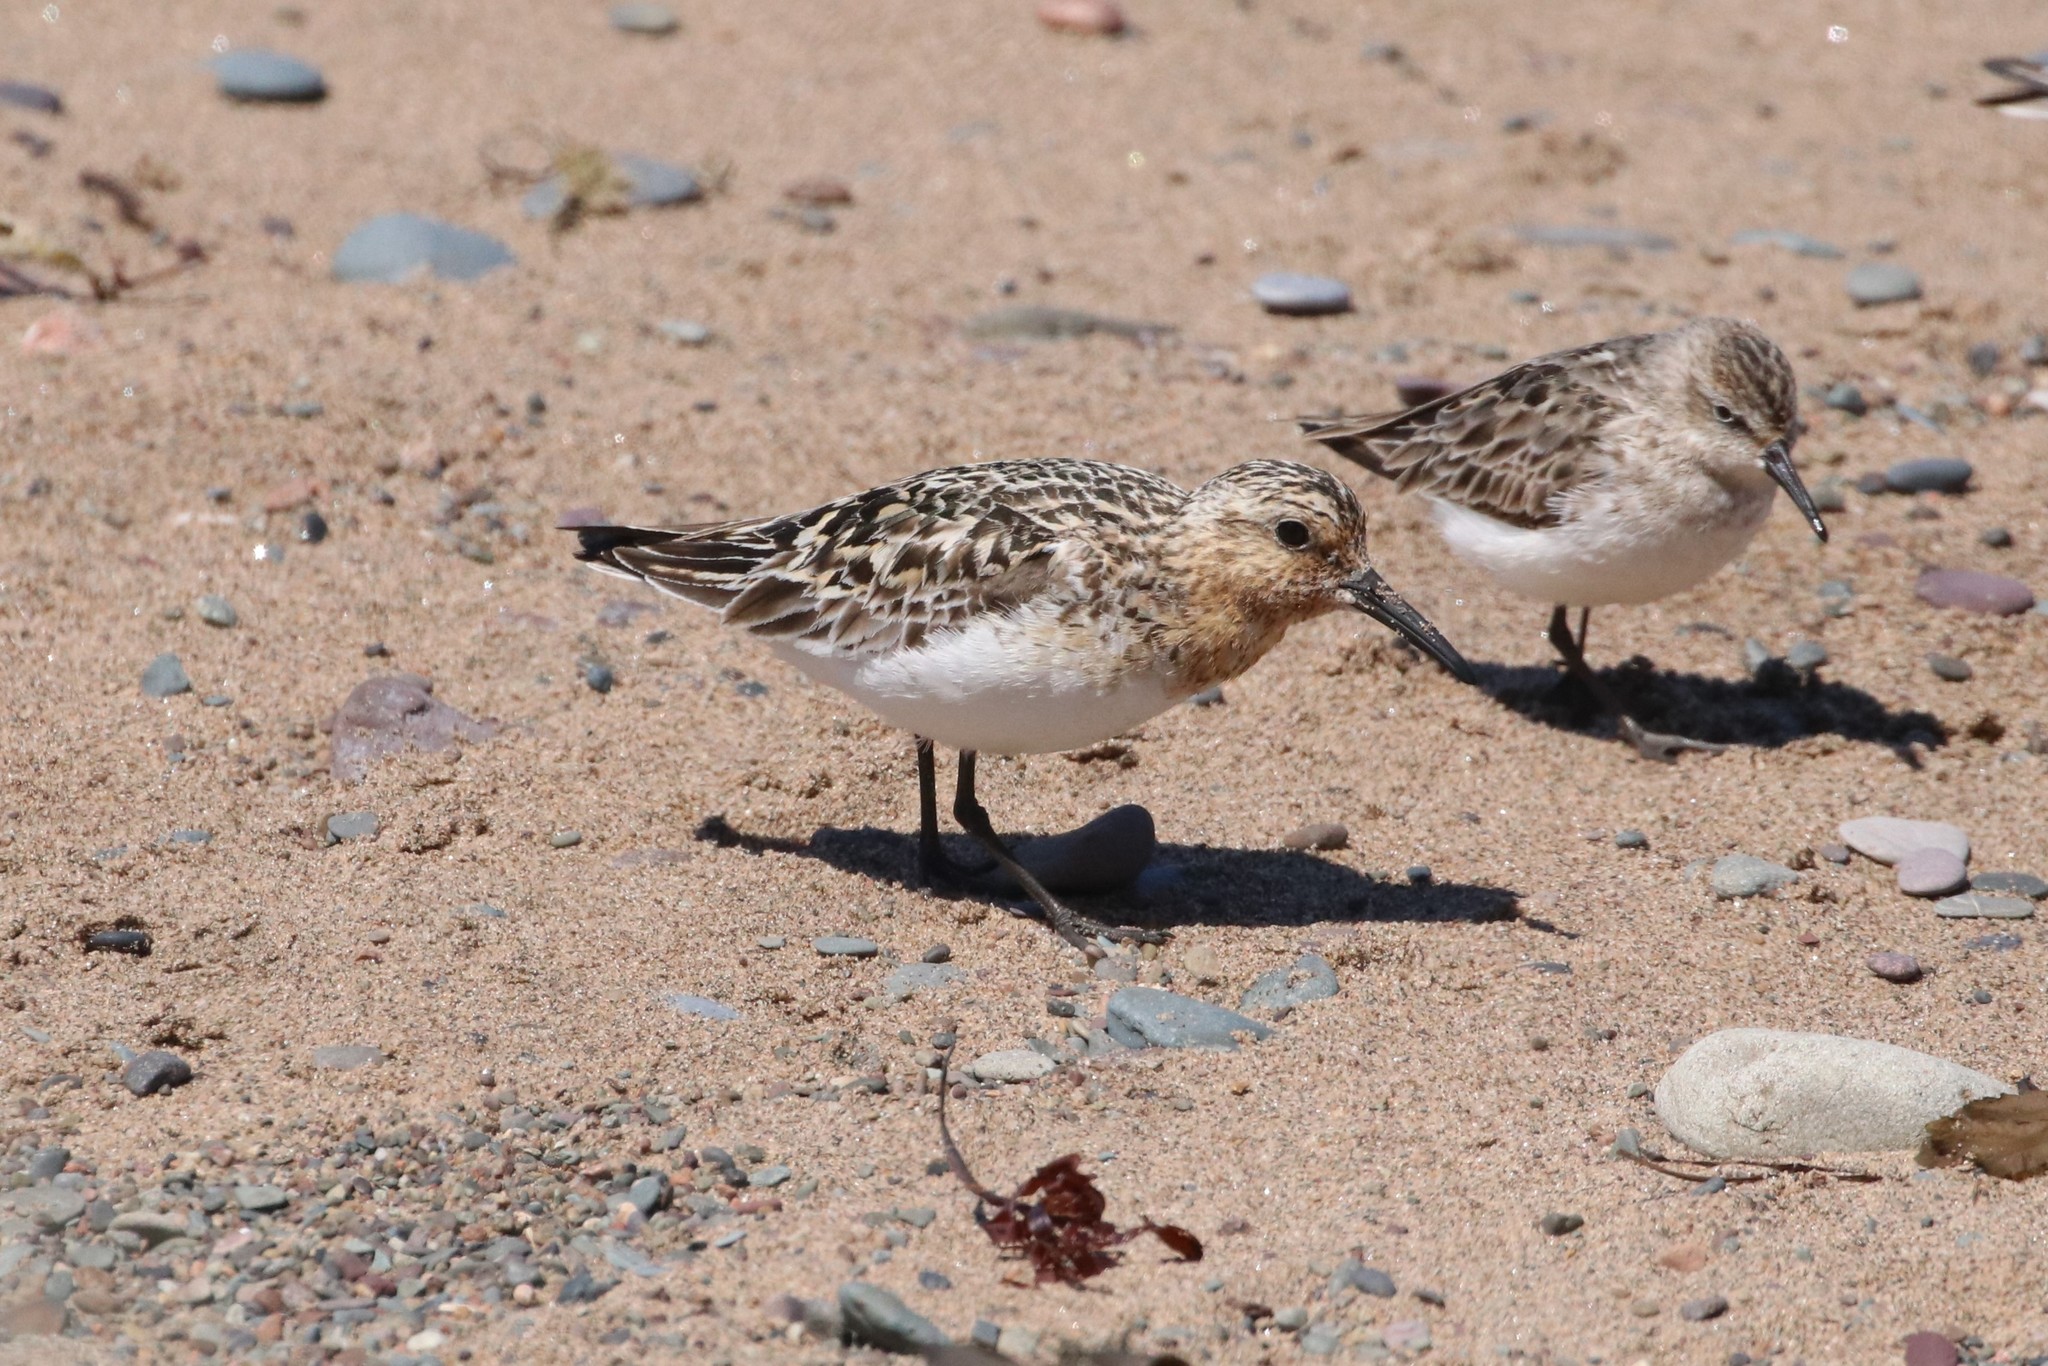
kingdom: Animalia
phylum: Chordata
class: Aves
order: Charadriiformes
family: Scolopacidae
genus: Calidris
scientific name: Calidris alba
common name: Sanderling
